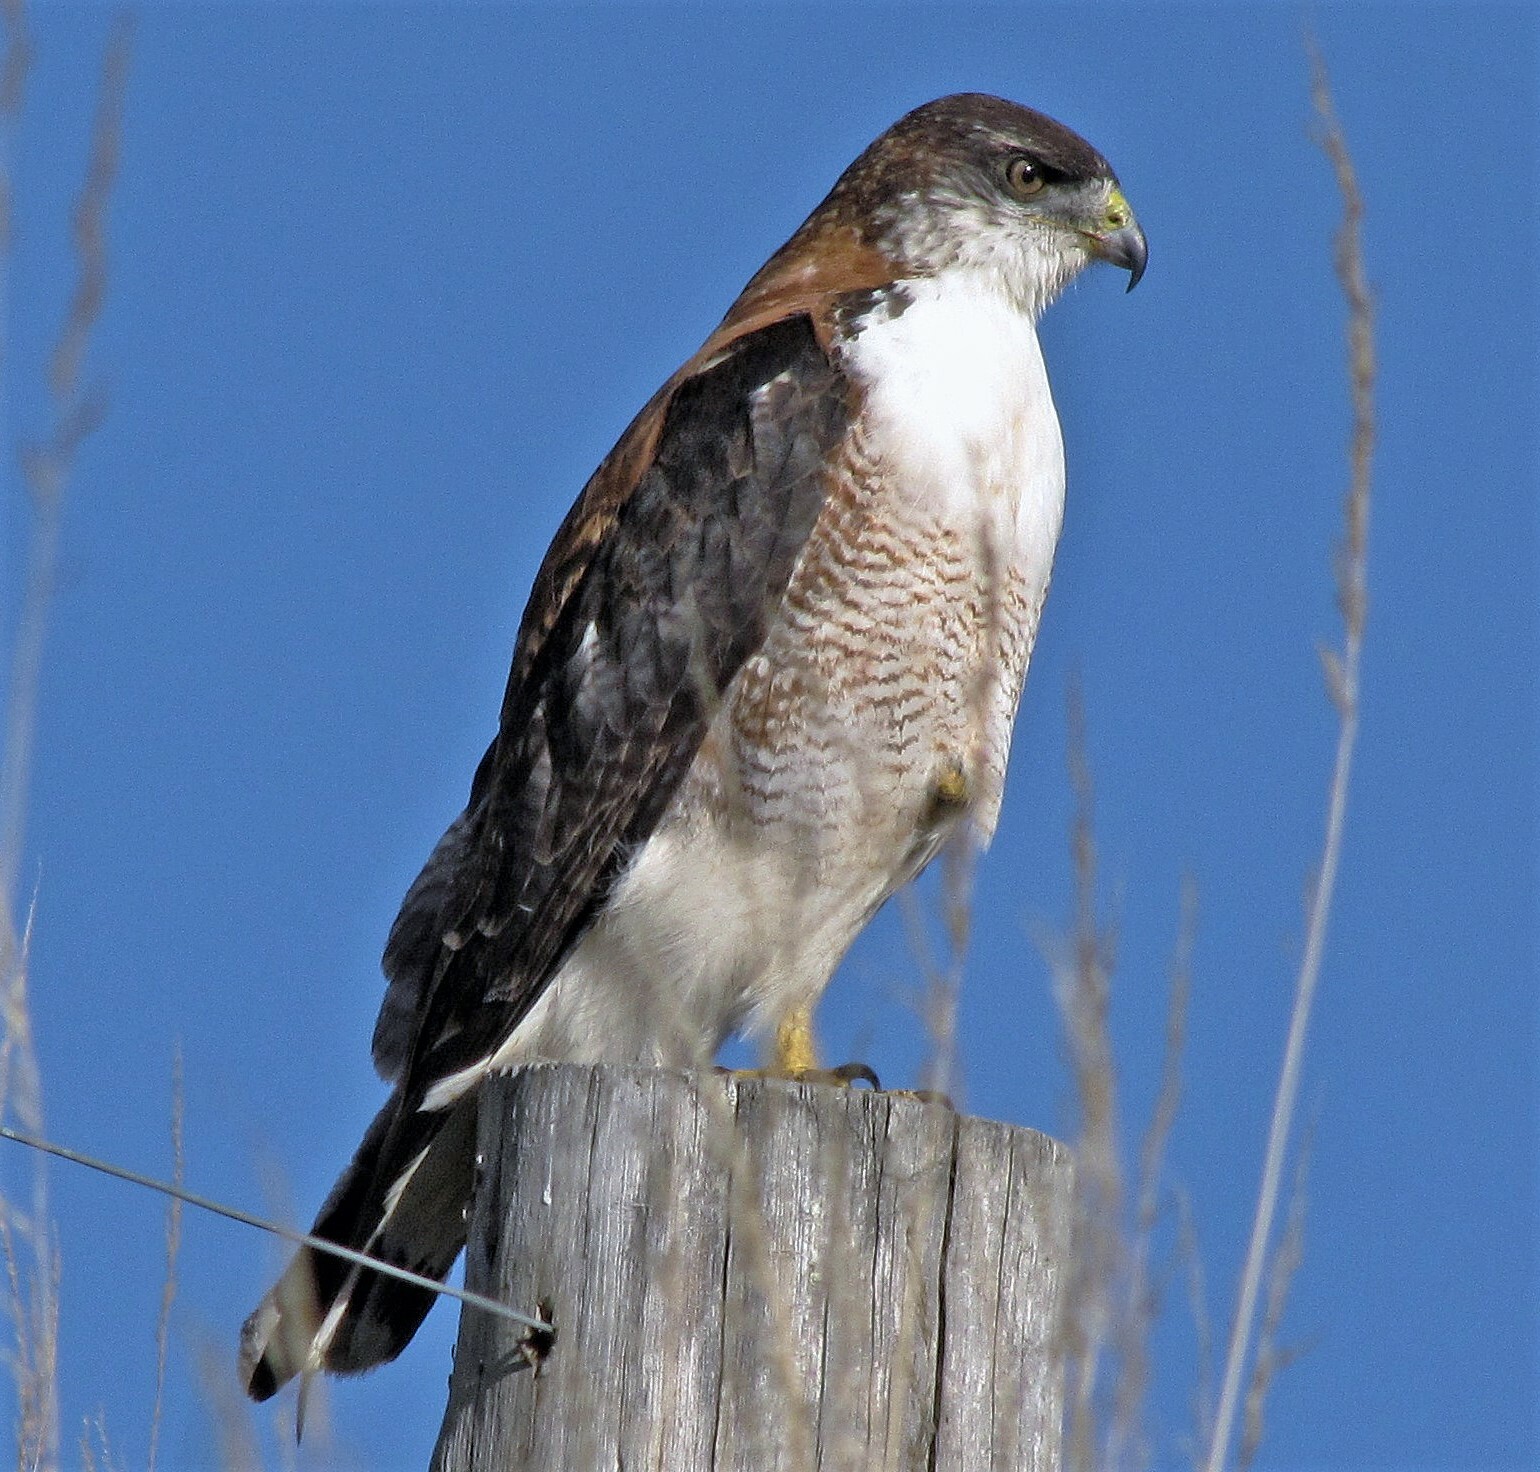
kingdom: Animalia
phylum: Chordata
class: Aves
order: Accipitriformes
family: Accipitridae
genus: Buteo
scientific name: Buteo polyosoma
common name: Variable hawk
